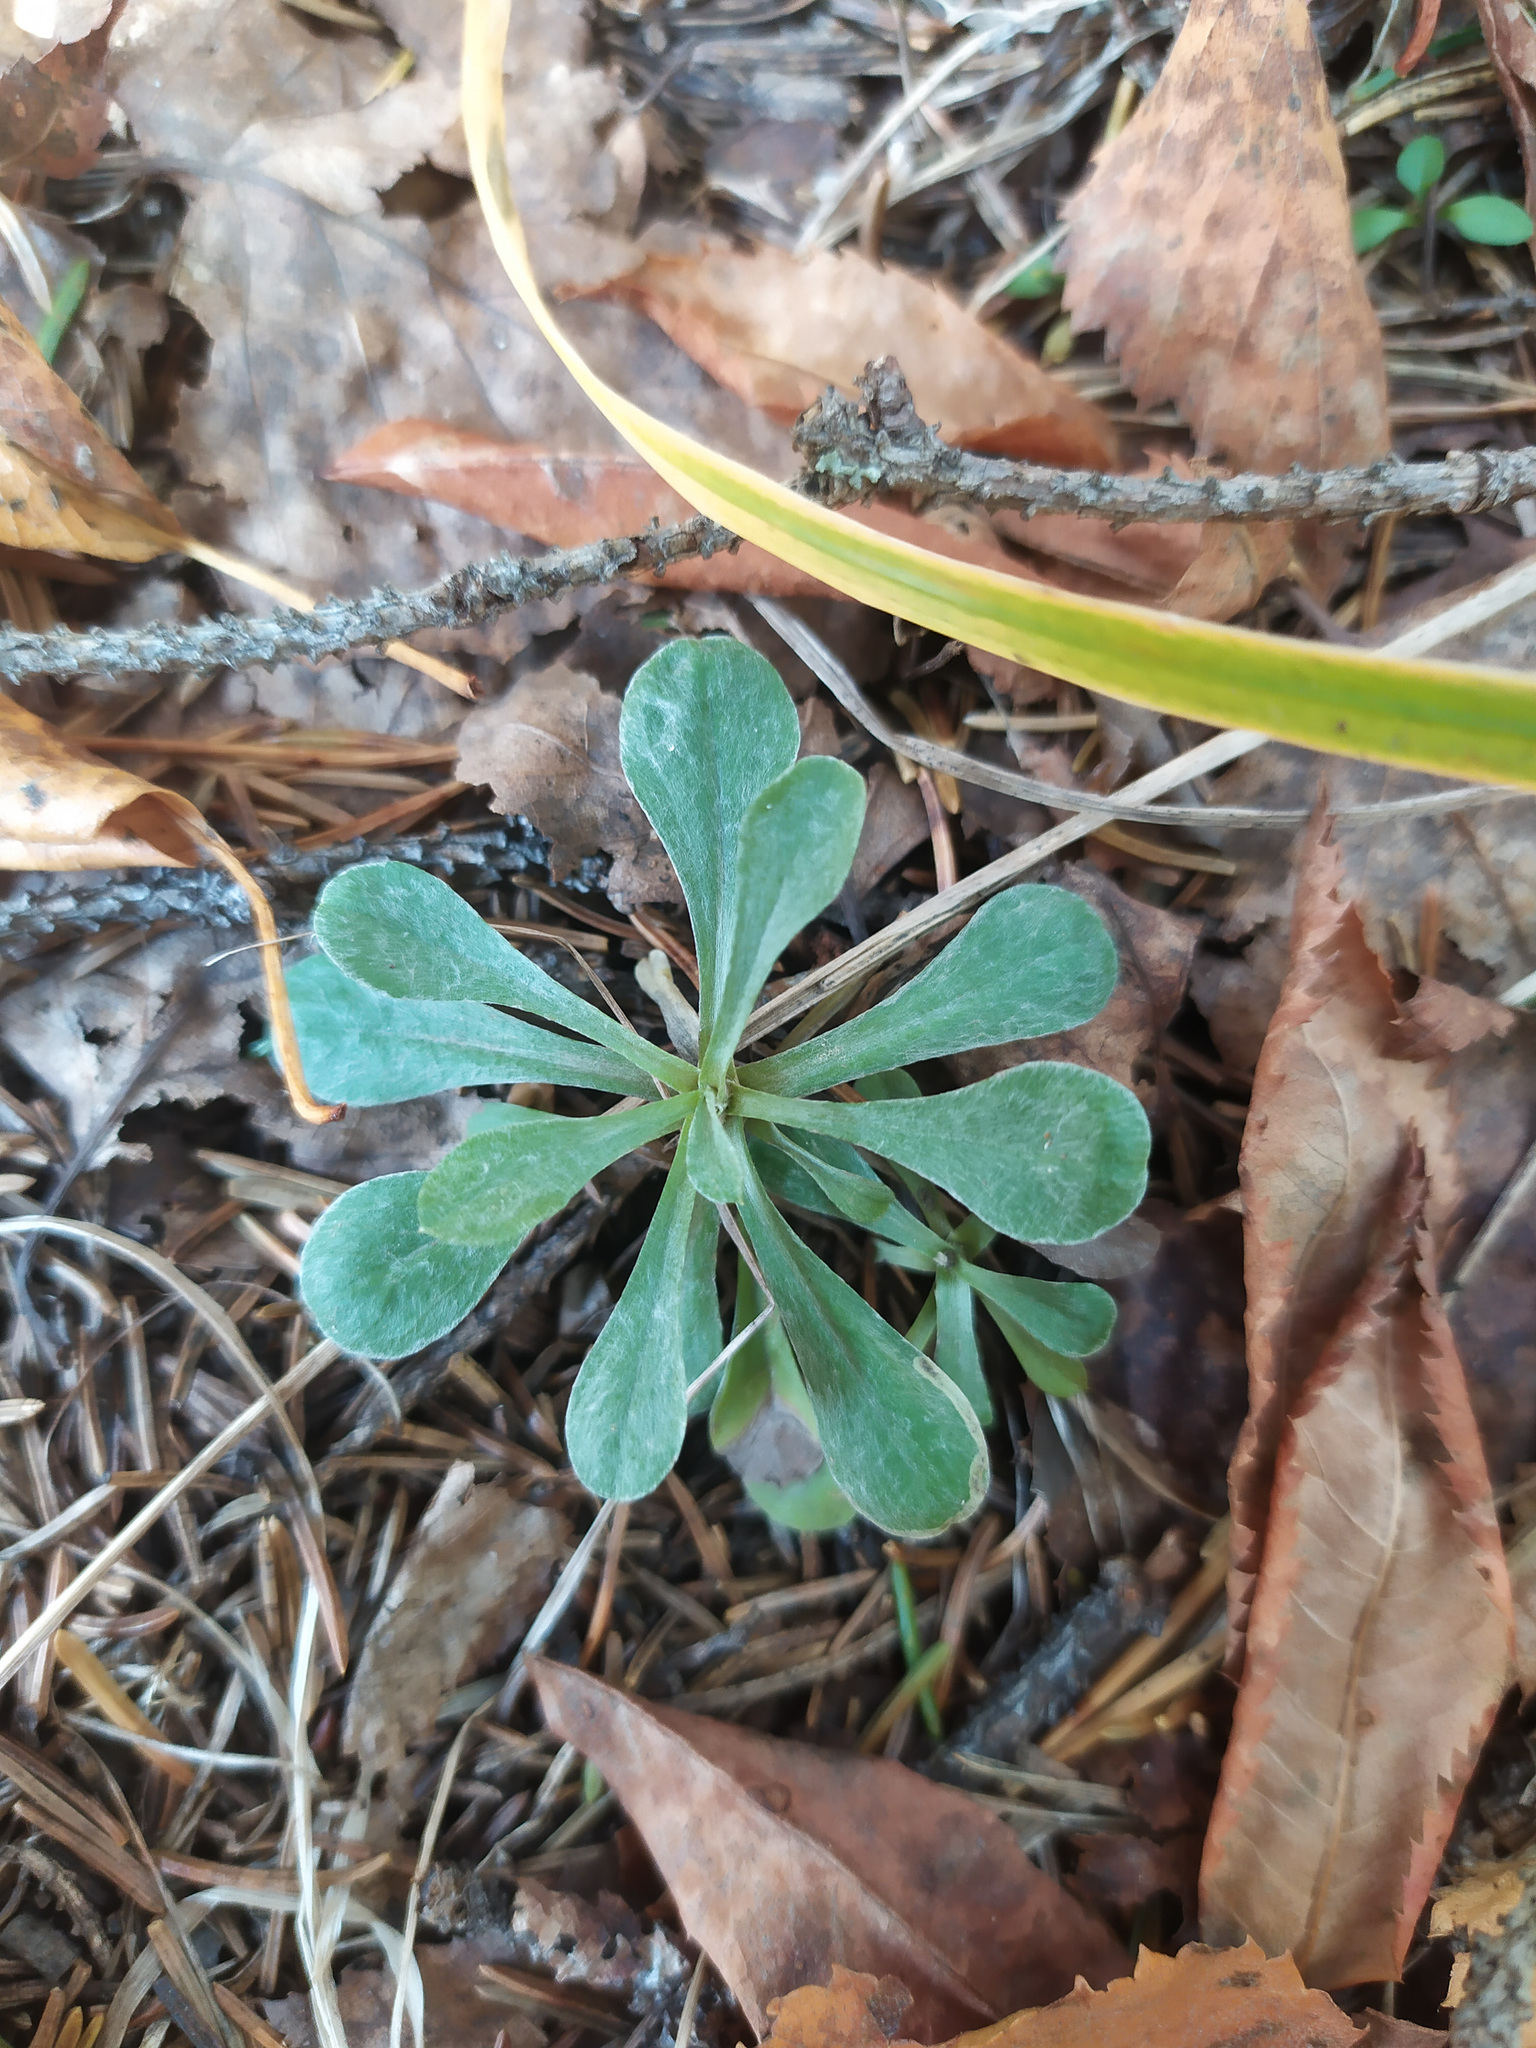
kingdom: Plantae
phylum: Tracheophyta
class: Magnoliopsida
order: Asterales
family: Asteraceae
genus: Antennaria
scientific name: Antennaria dioica
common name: Mountain everlasting
